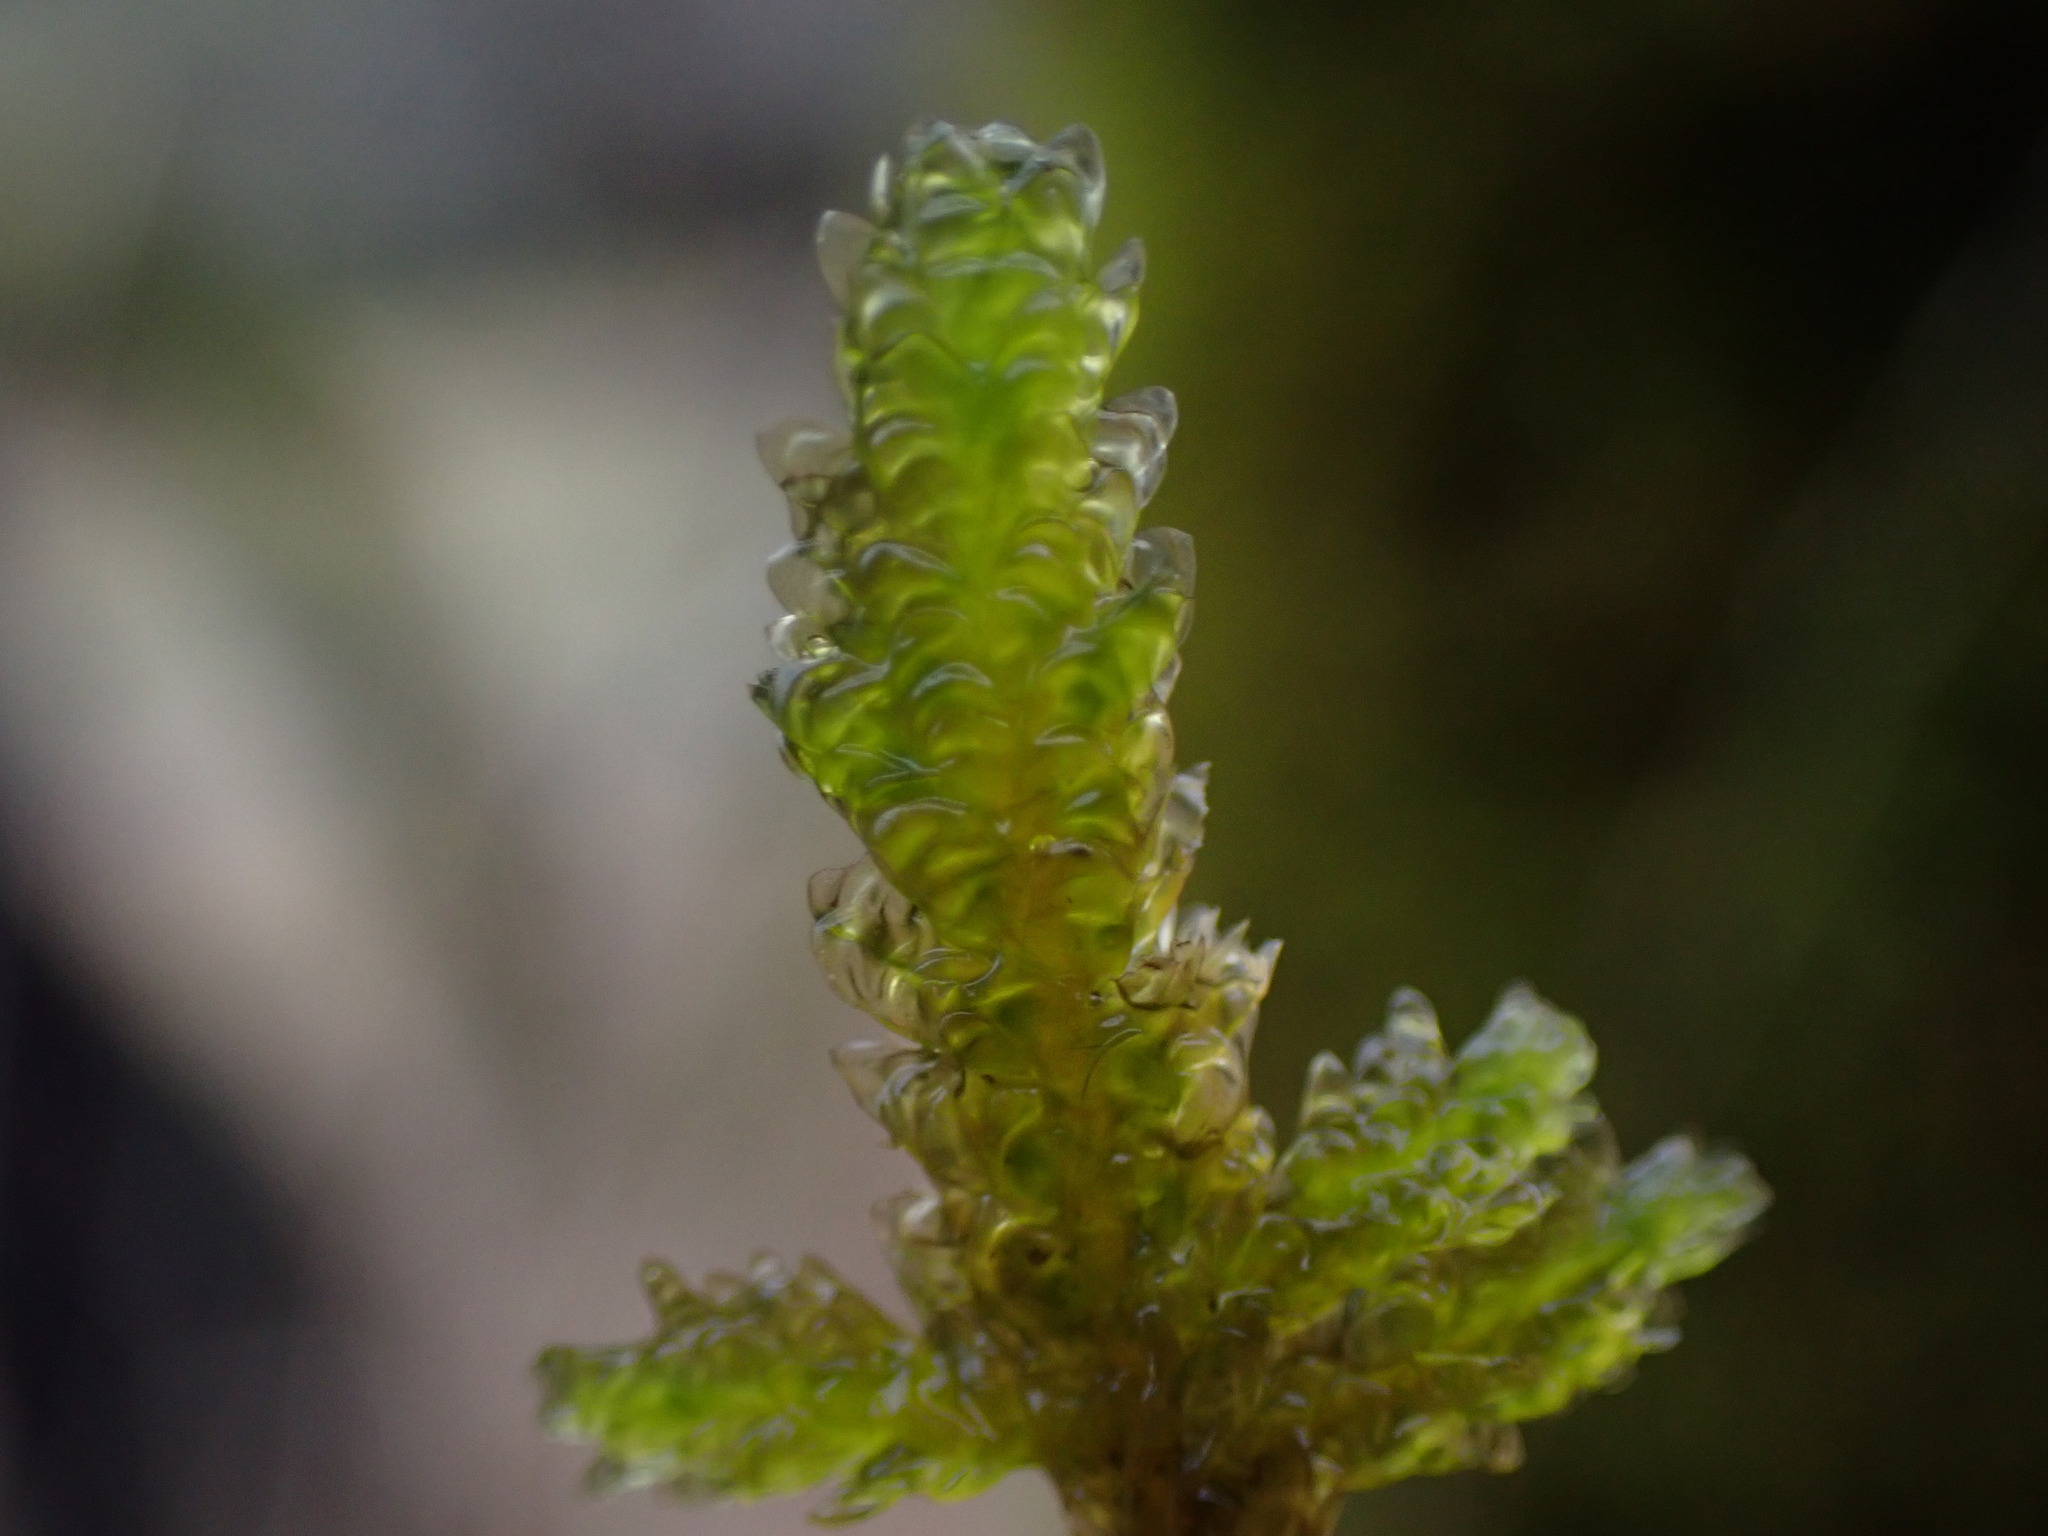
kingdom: Plantae
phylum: Bryophyta
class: Bryopsida
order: Hypnales
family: Neckeraceae
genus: Metaneckera
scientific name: Metaneckera menziesii
